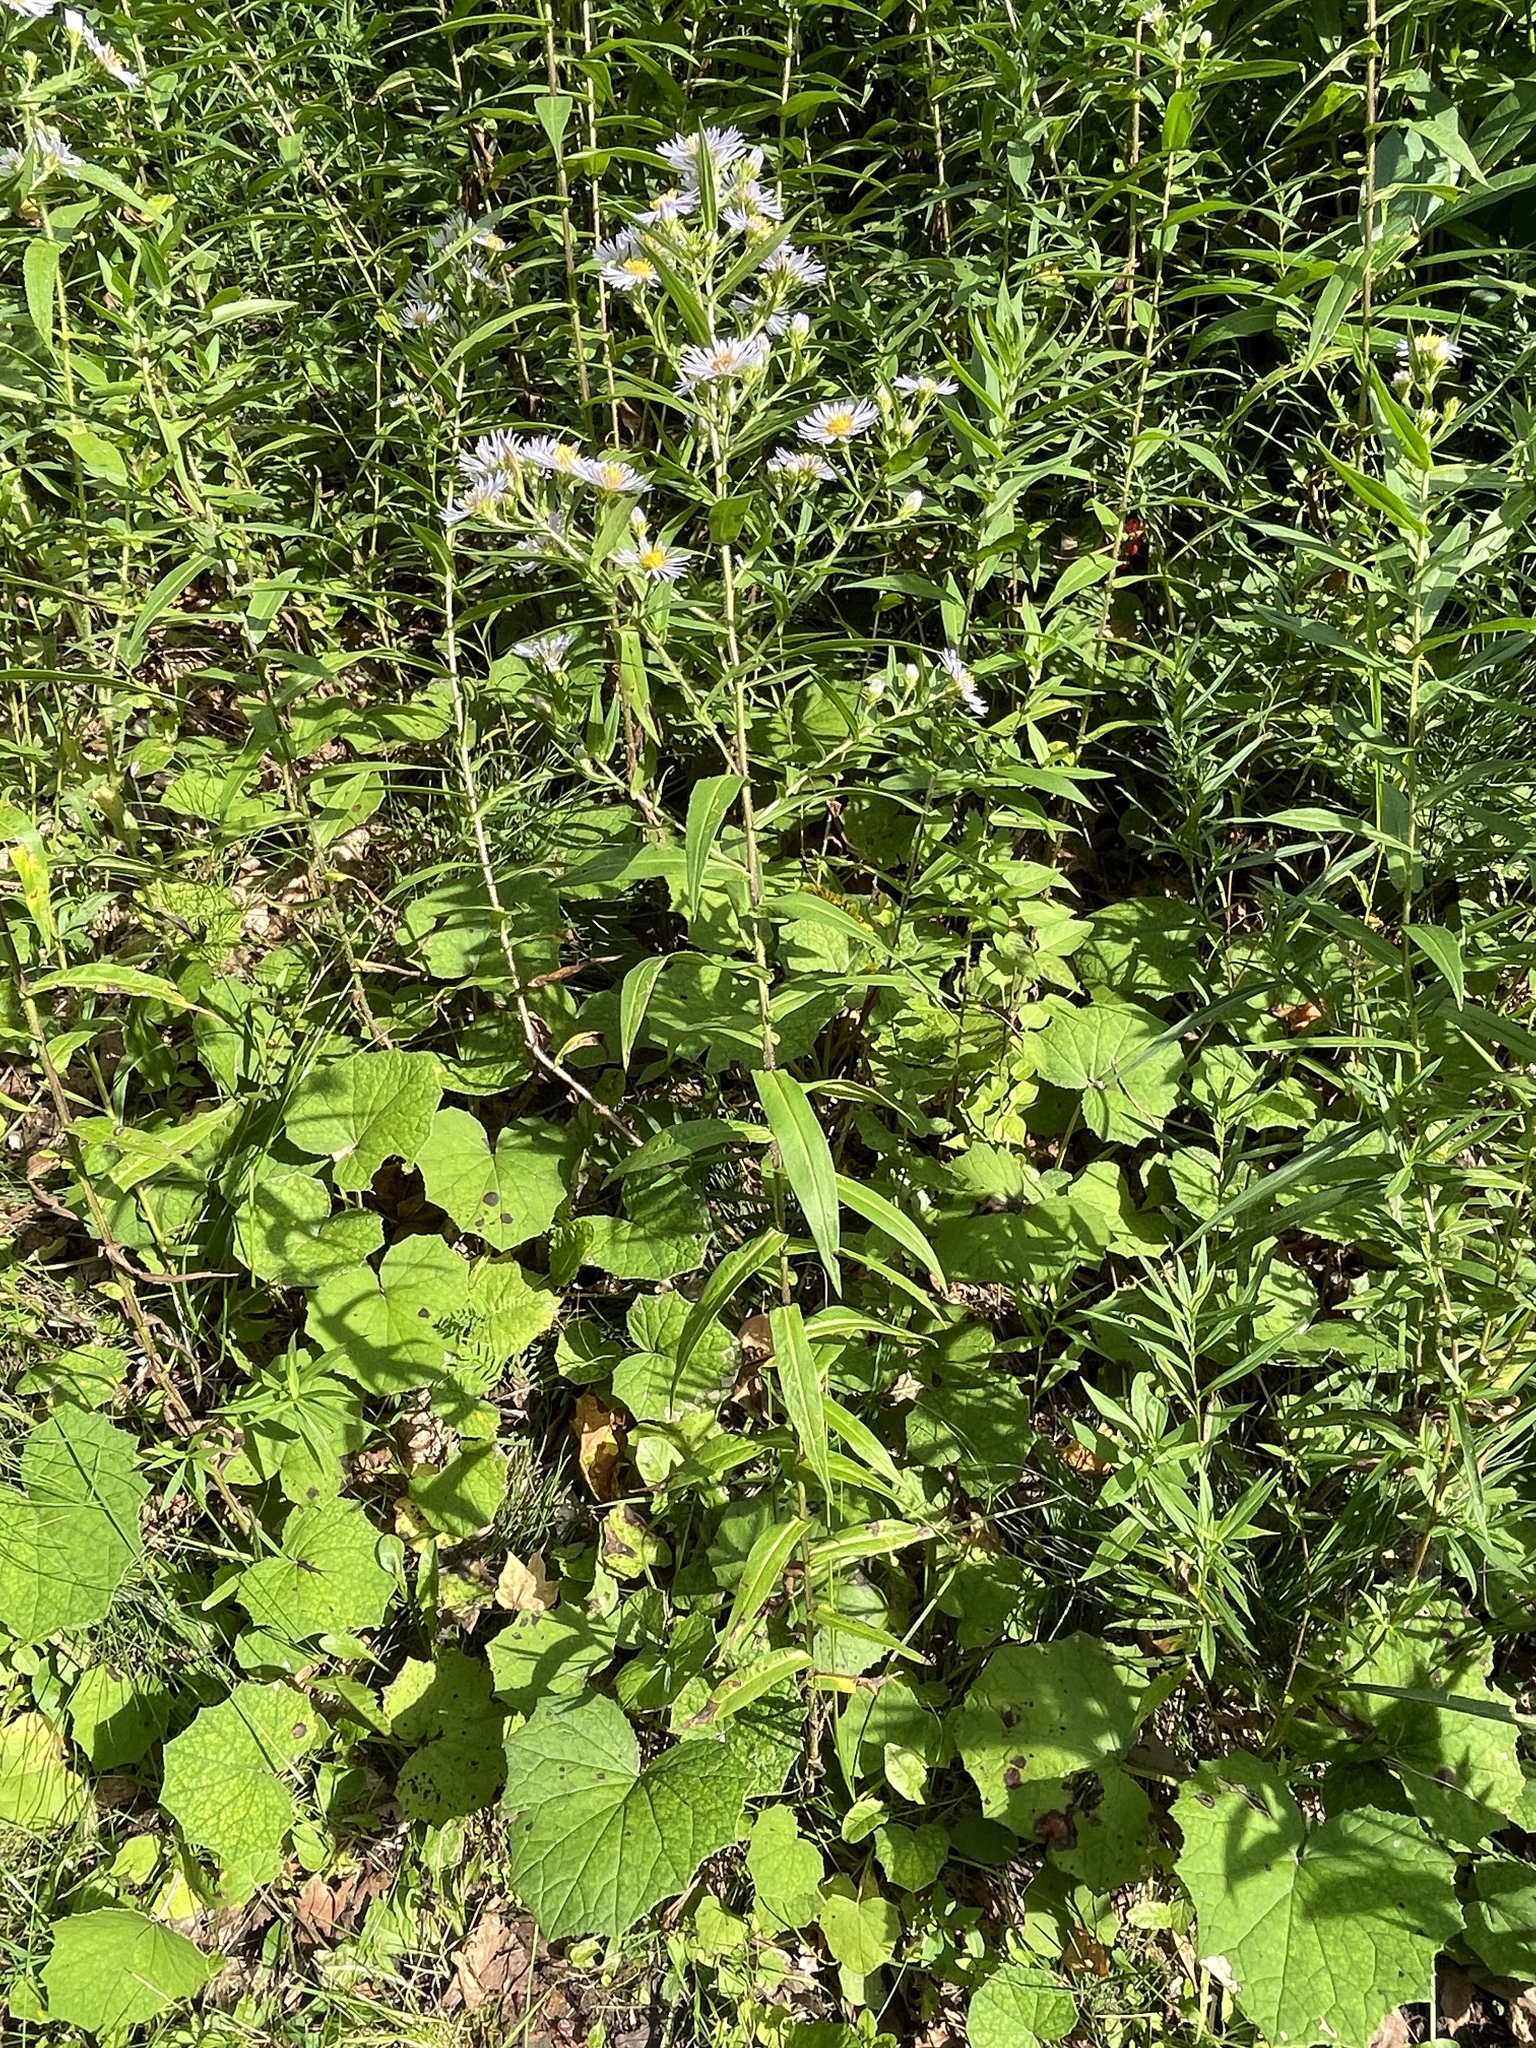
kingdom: Plantae
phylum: Tracheophyta
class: Magnoliopsida
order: Asterales
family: Asteraceae
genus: Symphyotrichum
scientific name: Symphyotrichum puniceum
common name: Bog aster
